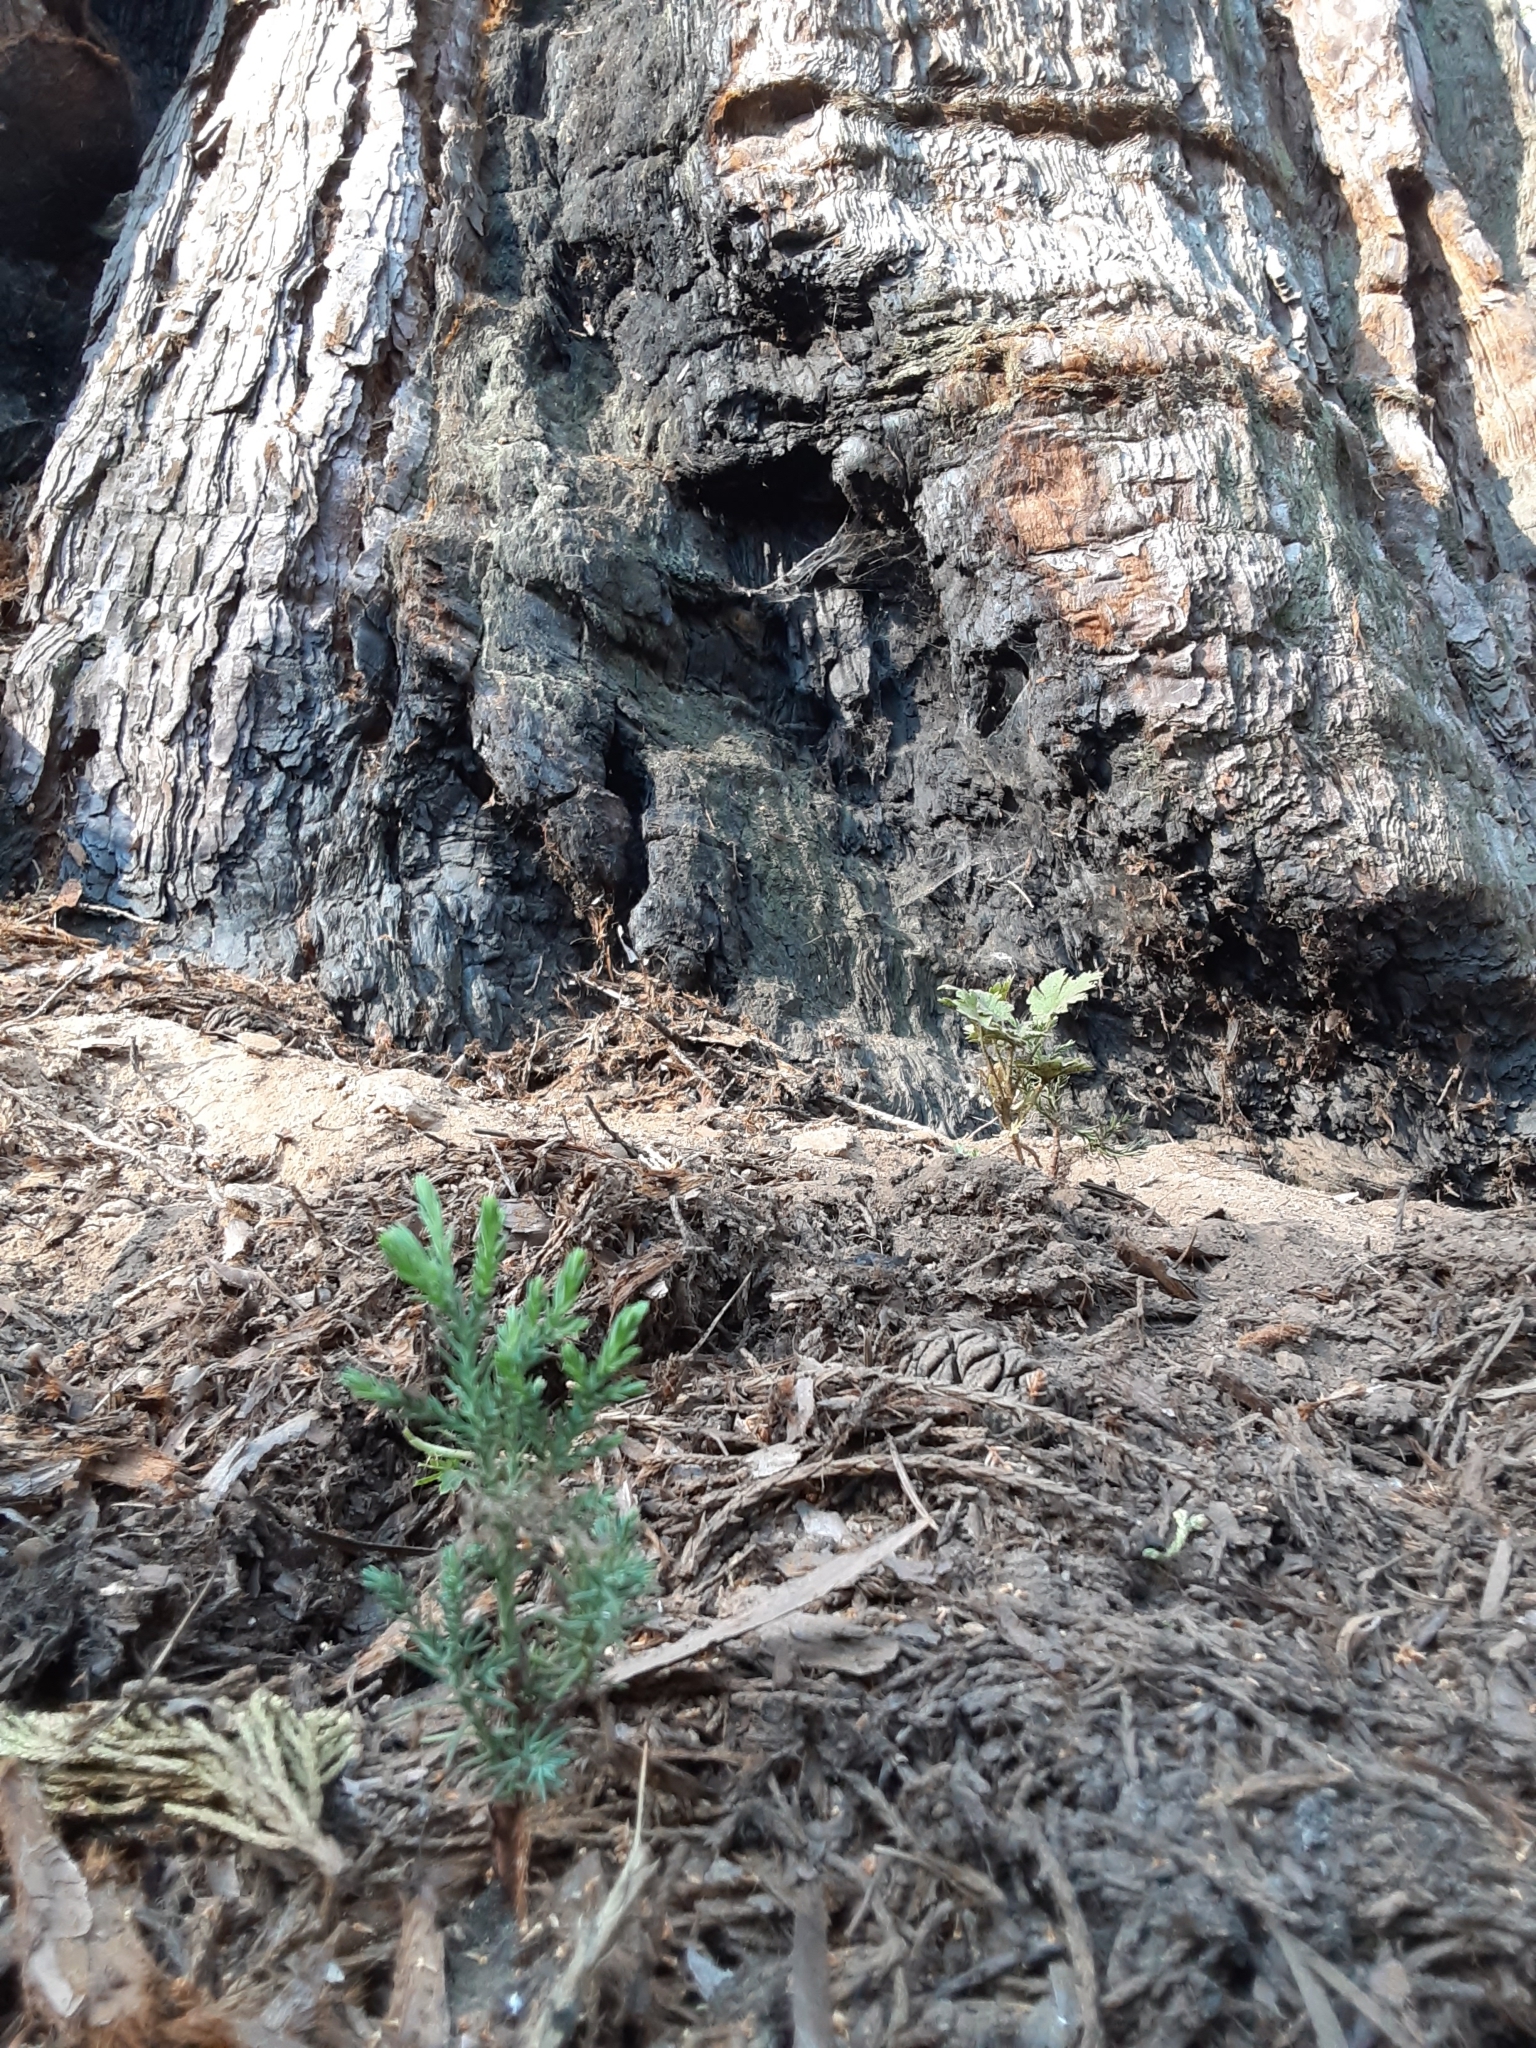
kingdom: Plantae
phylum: Tracheophyta
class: Pinopsida
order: Pinales
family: Cupressaceae
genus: Sequoiadendron
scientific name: Sequoiadendron giganteum
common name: Wellingtonia
